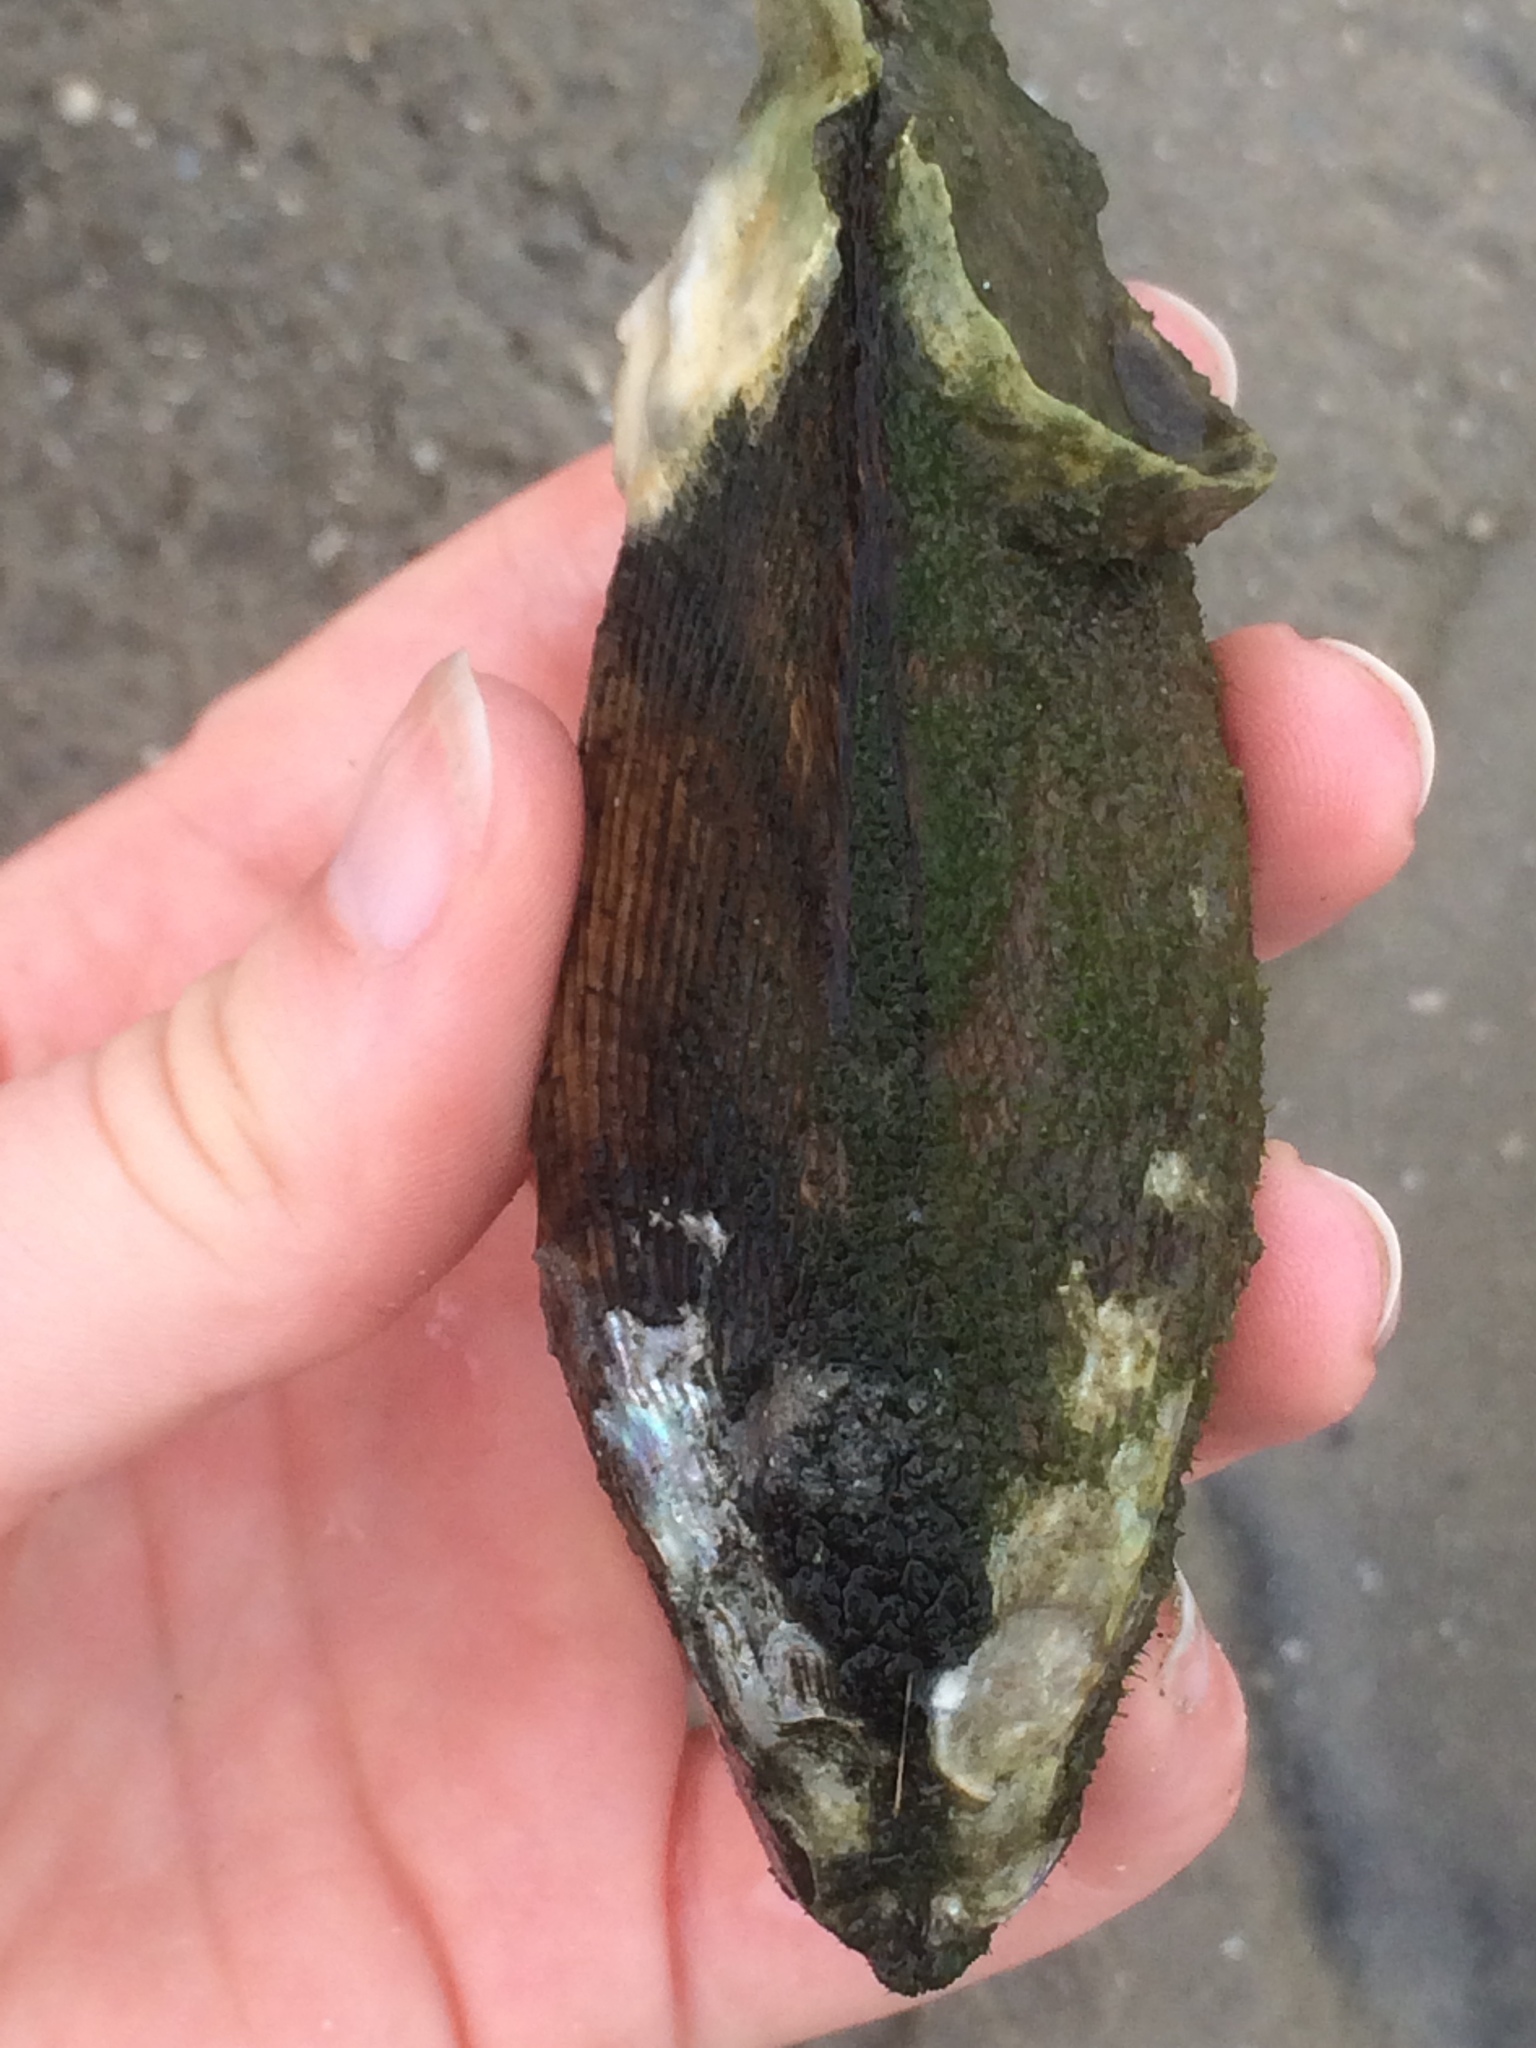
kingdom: Animalia
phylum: Mollusca
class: Bivalvia
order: Mytilida
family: Mytilidae
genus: Geukensia
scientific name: Geukensia demissa
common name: Ribbed mussel
